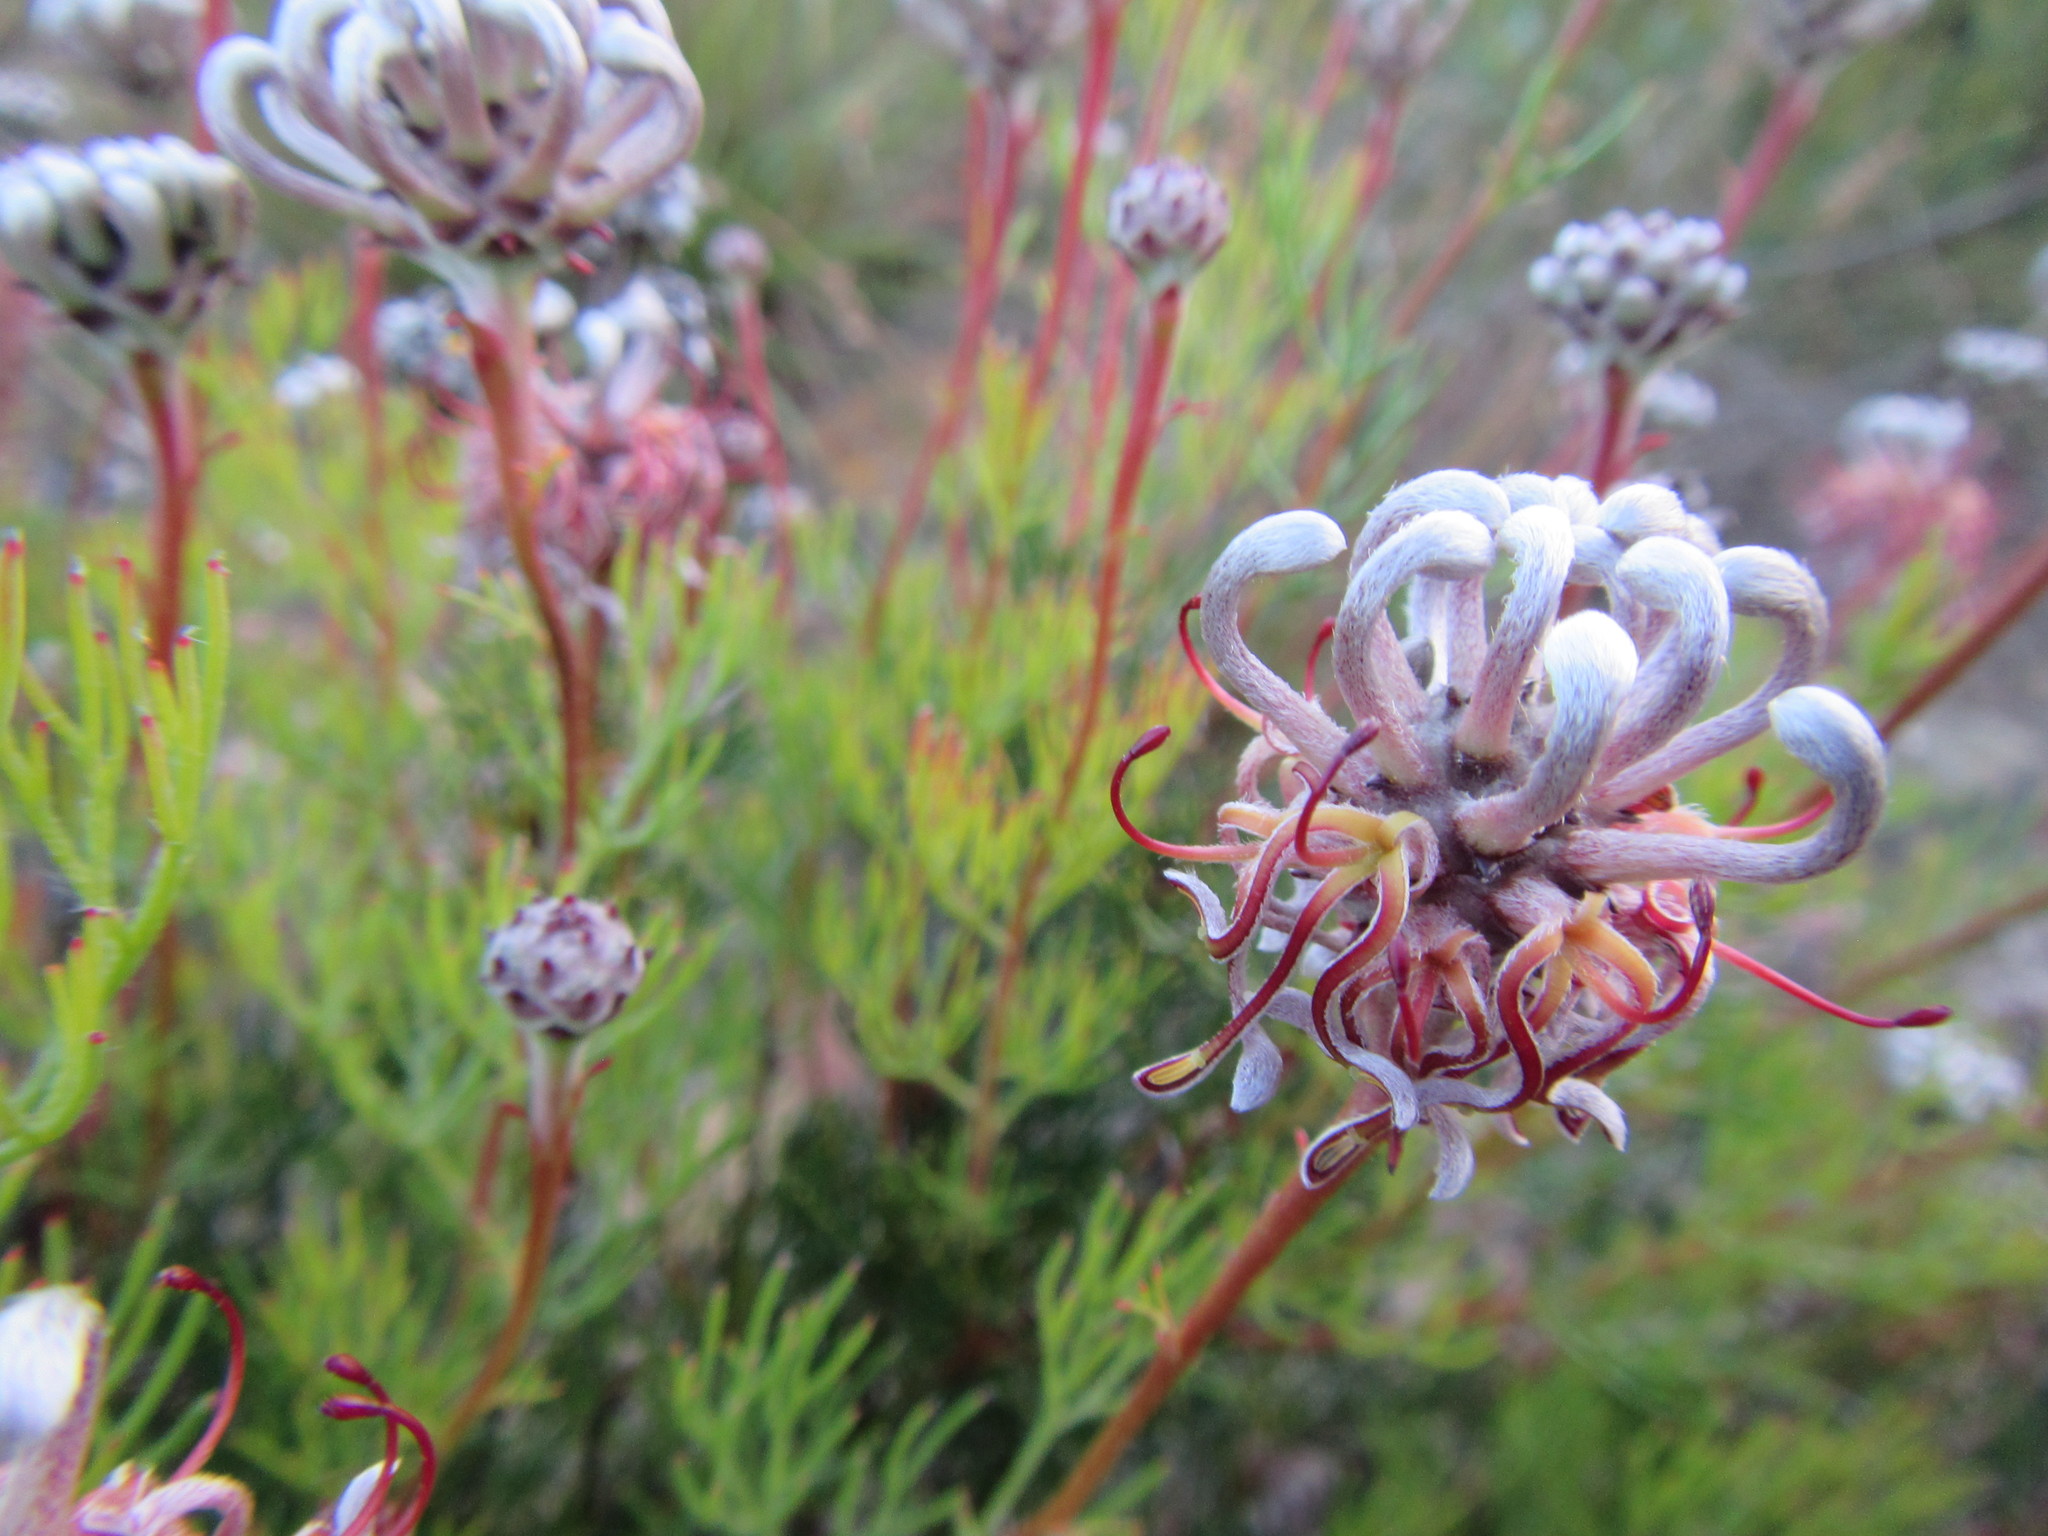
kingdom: Plantae
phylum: Tracheophyta
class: Magnoliopsida
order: Proteales
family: Proteaceae
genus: Serruria
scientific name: Serruria gremialis
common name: Riviersonderend spiderhead
